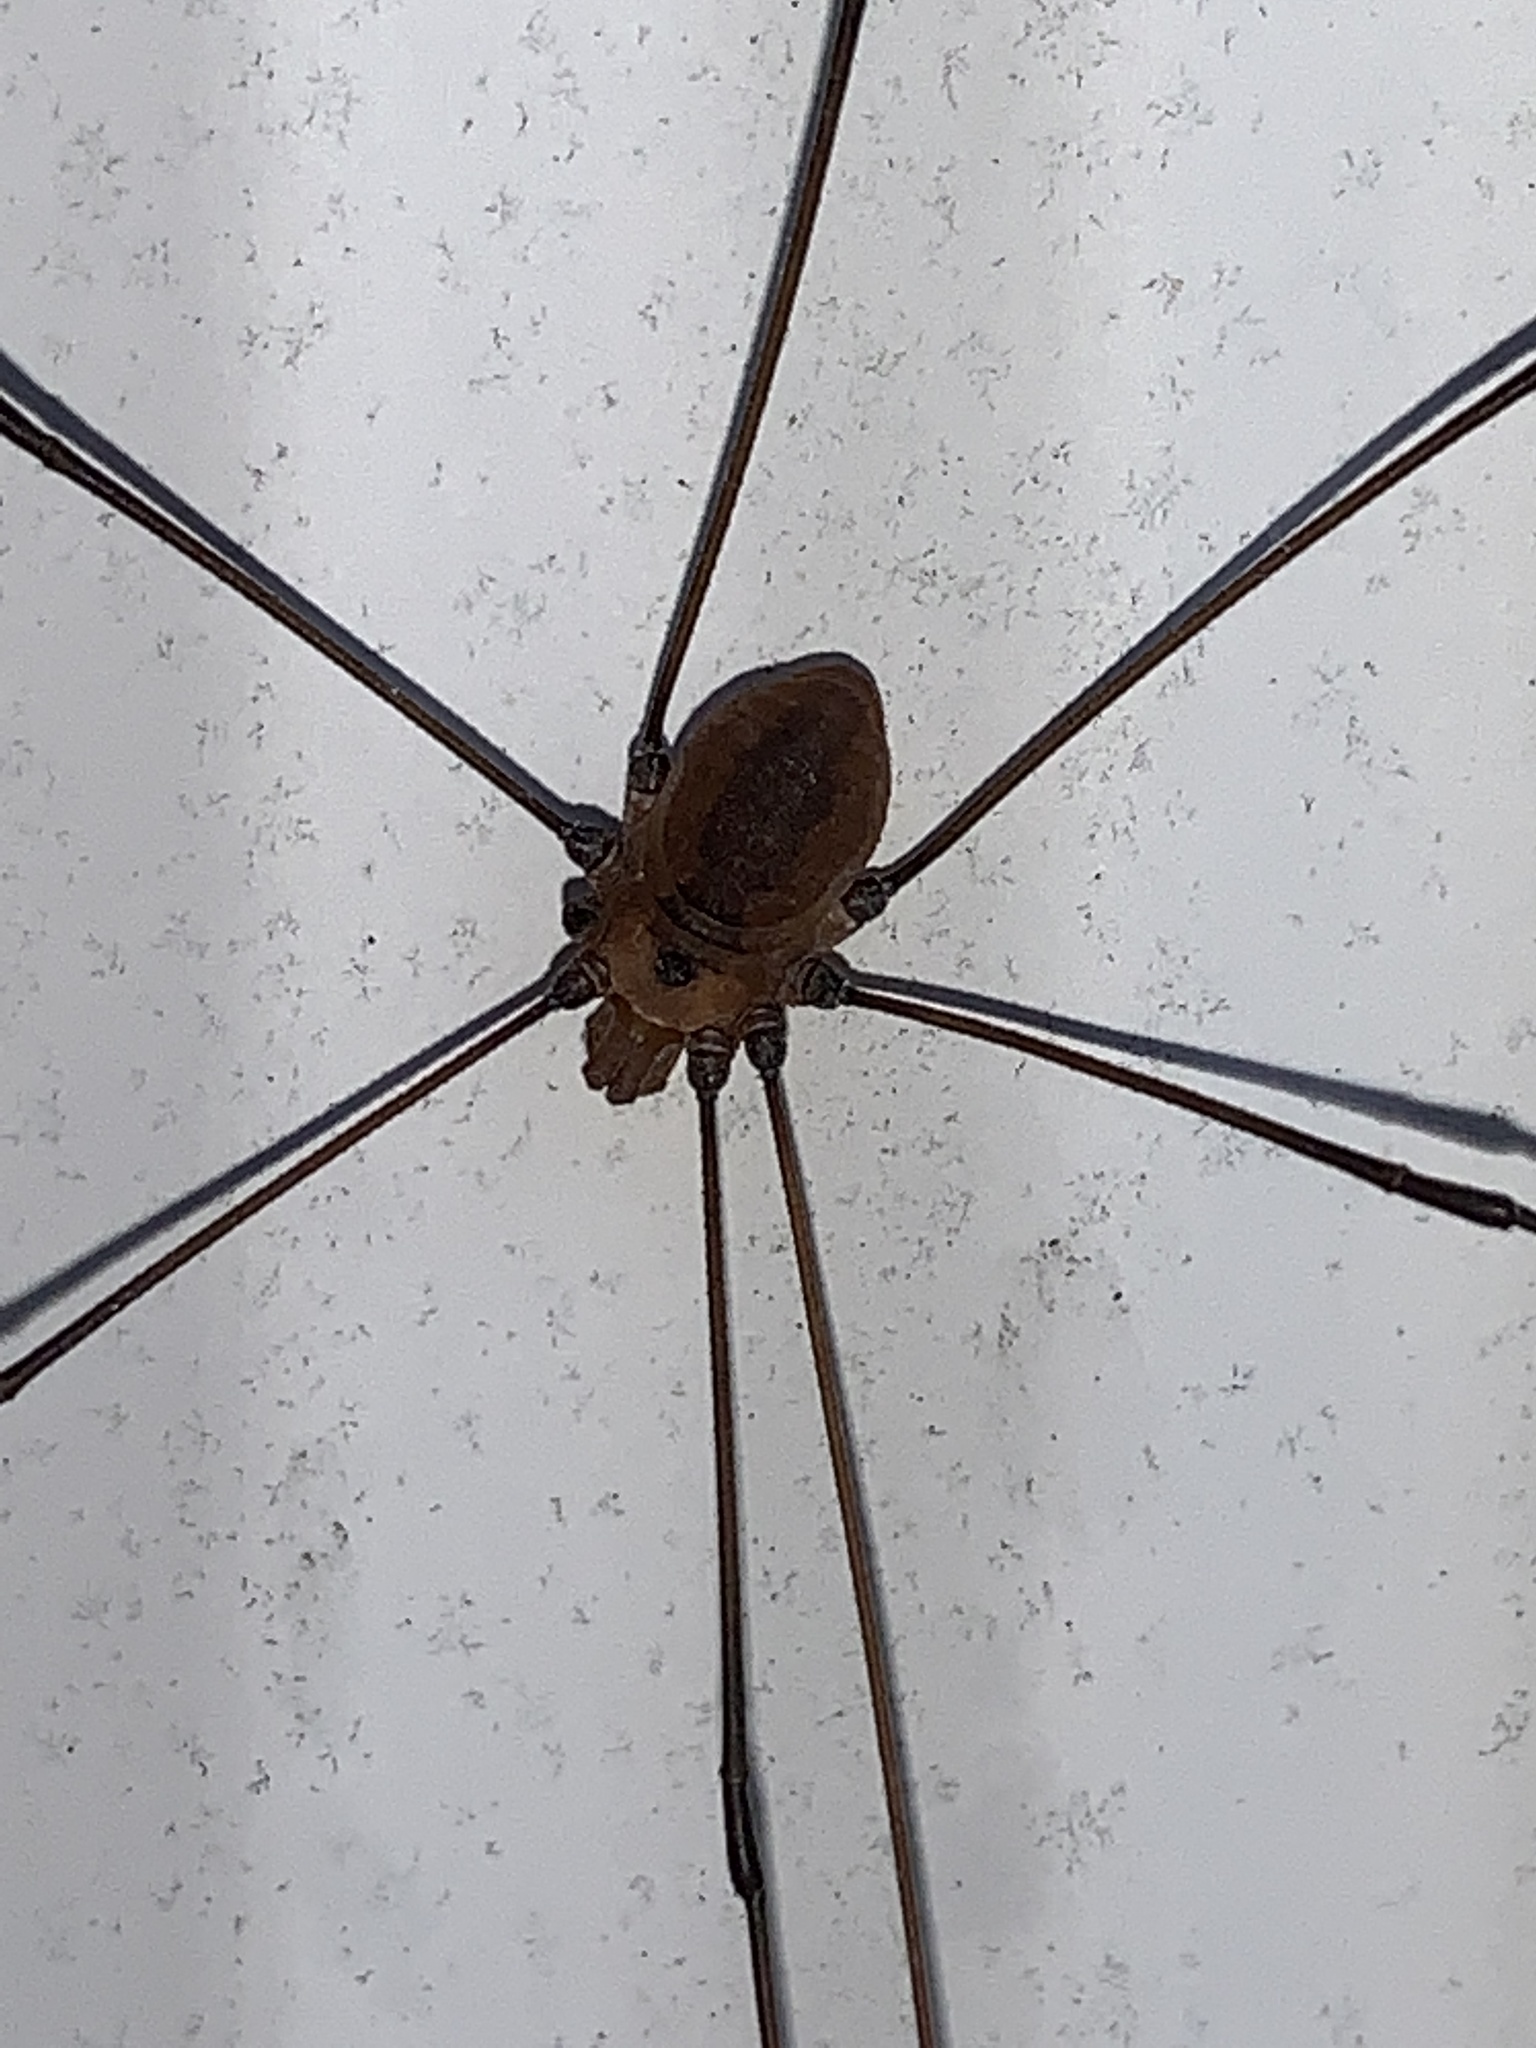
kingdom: Animalia
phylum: Arthropoda
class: Arachnida
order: Opiliones
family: Sclerosomatidae
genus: Leiobunum
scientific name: Leiobunum vittatum
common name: Eastern harvestman
